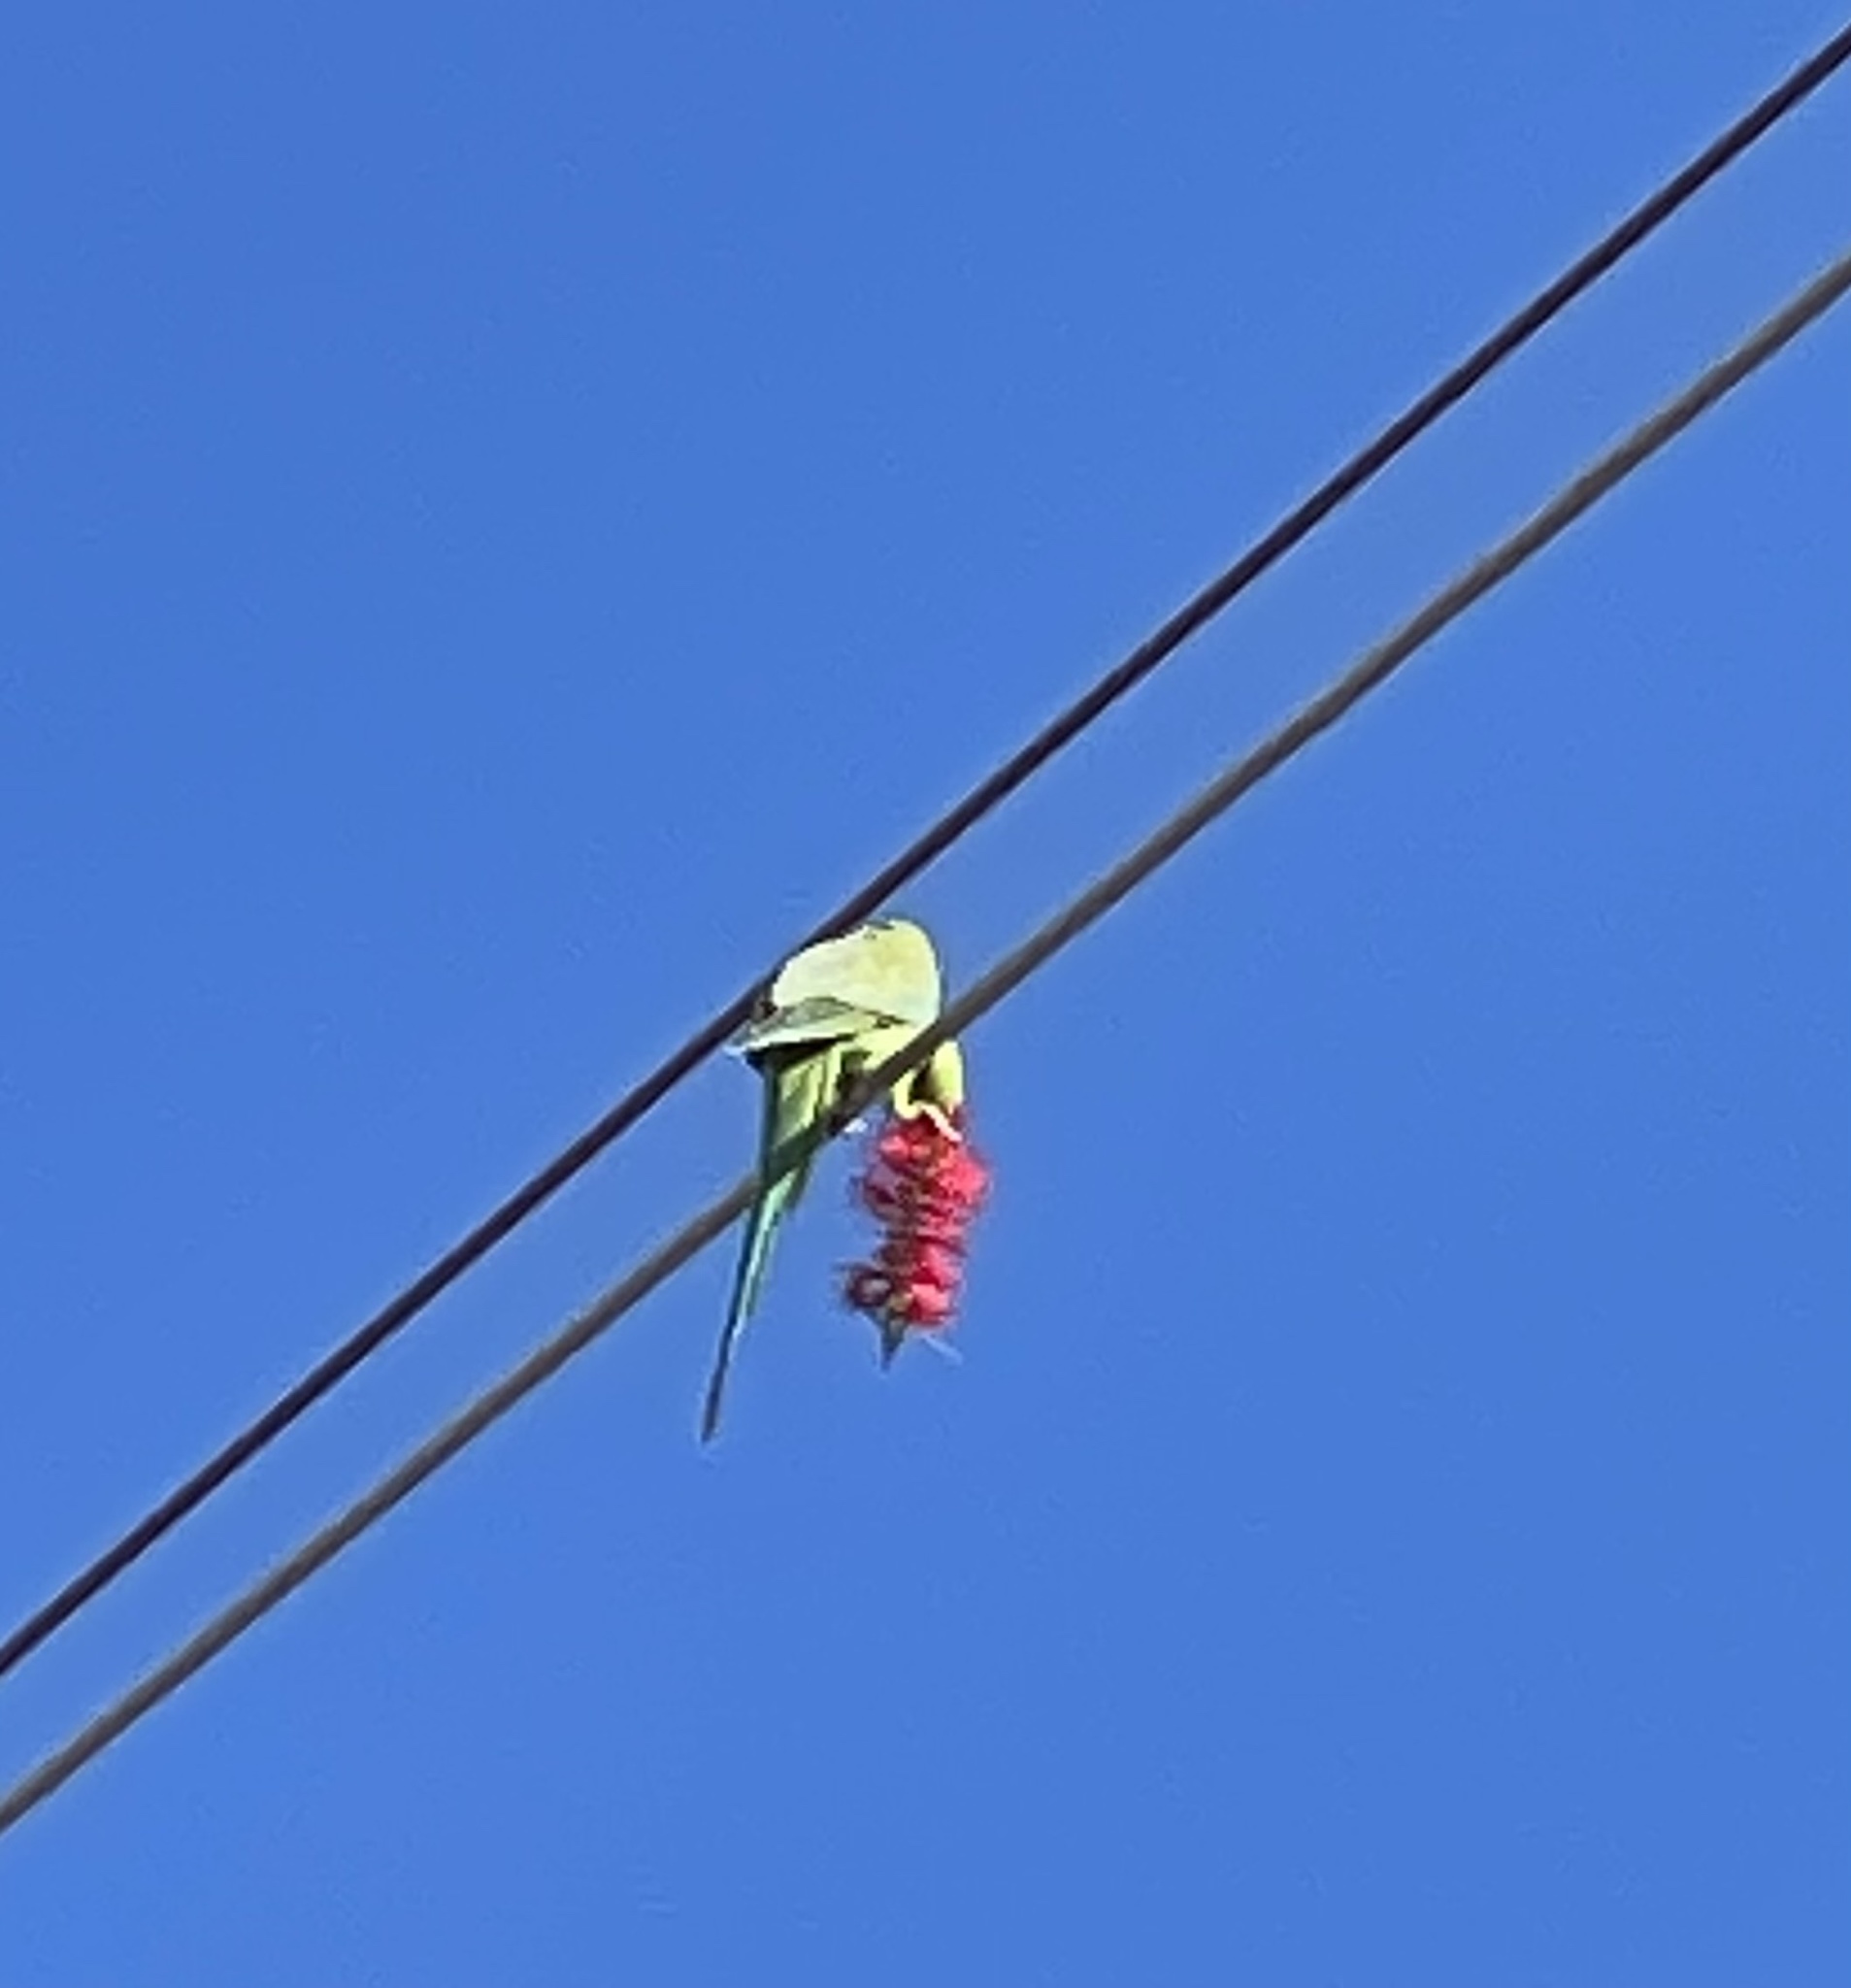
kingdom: Animalia
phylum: Chordata
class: Aves
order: Psittaciformes
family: Psittacidae
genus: Psittacula
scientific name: Psittacula krameri
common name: Rose-ringed parakeet
